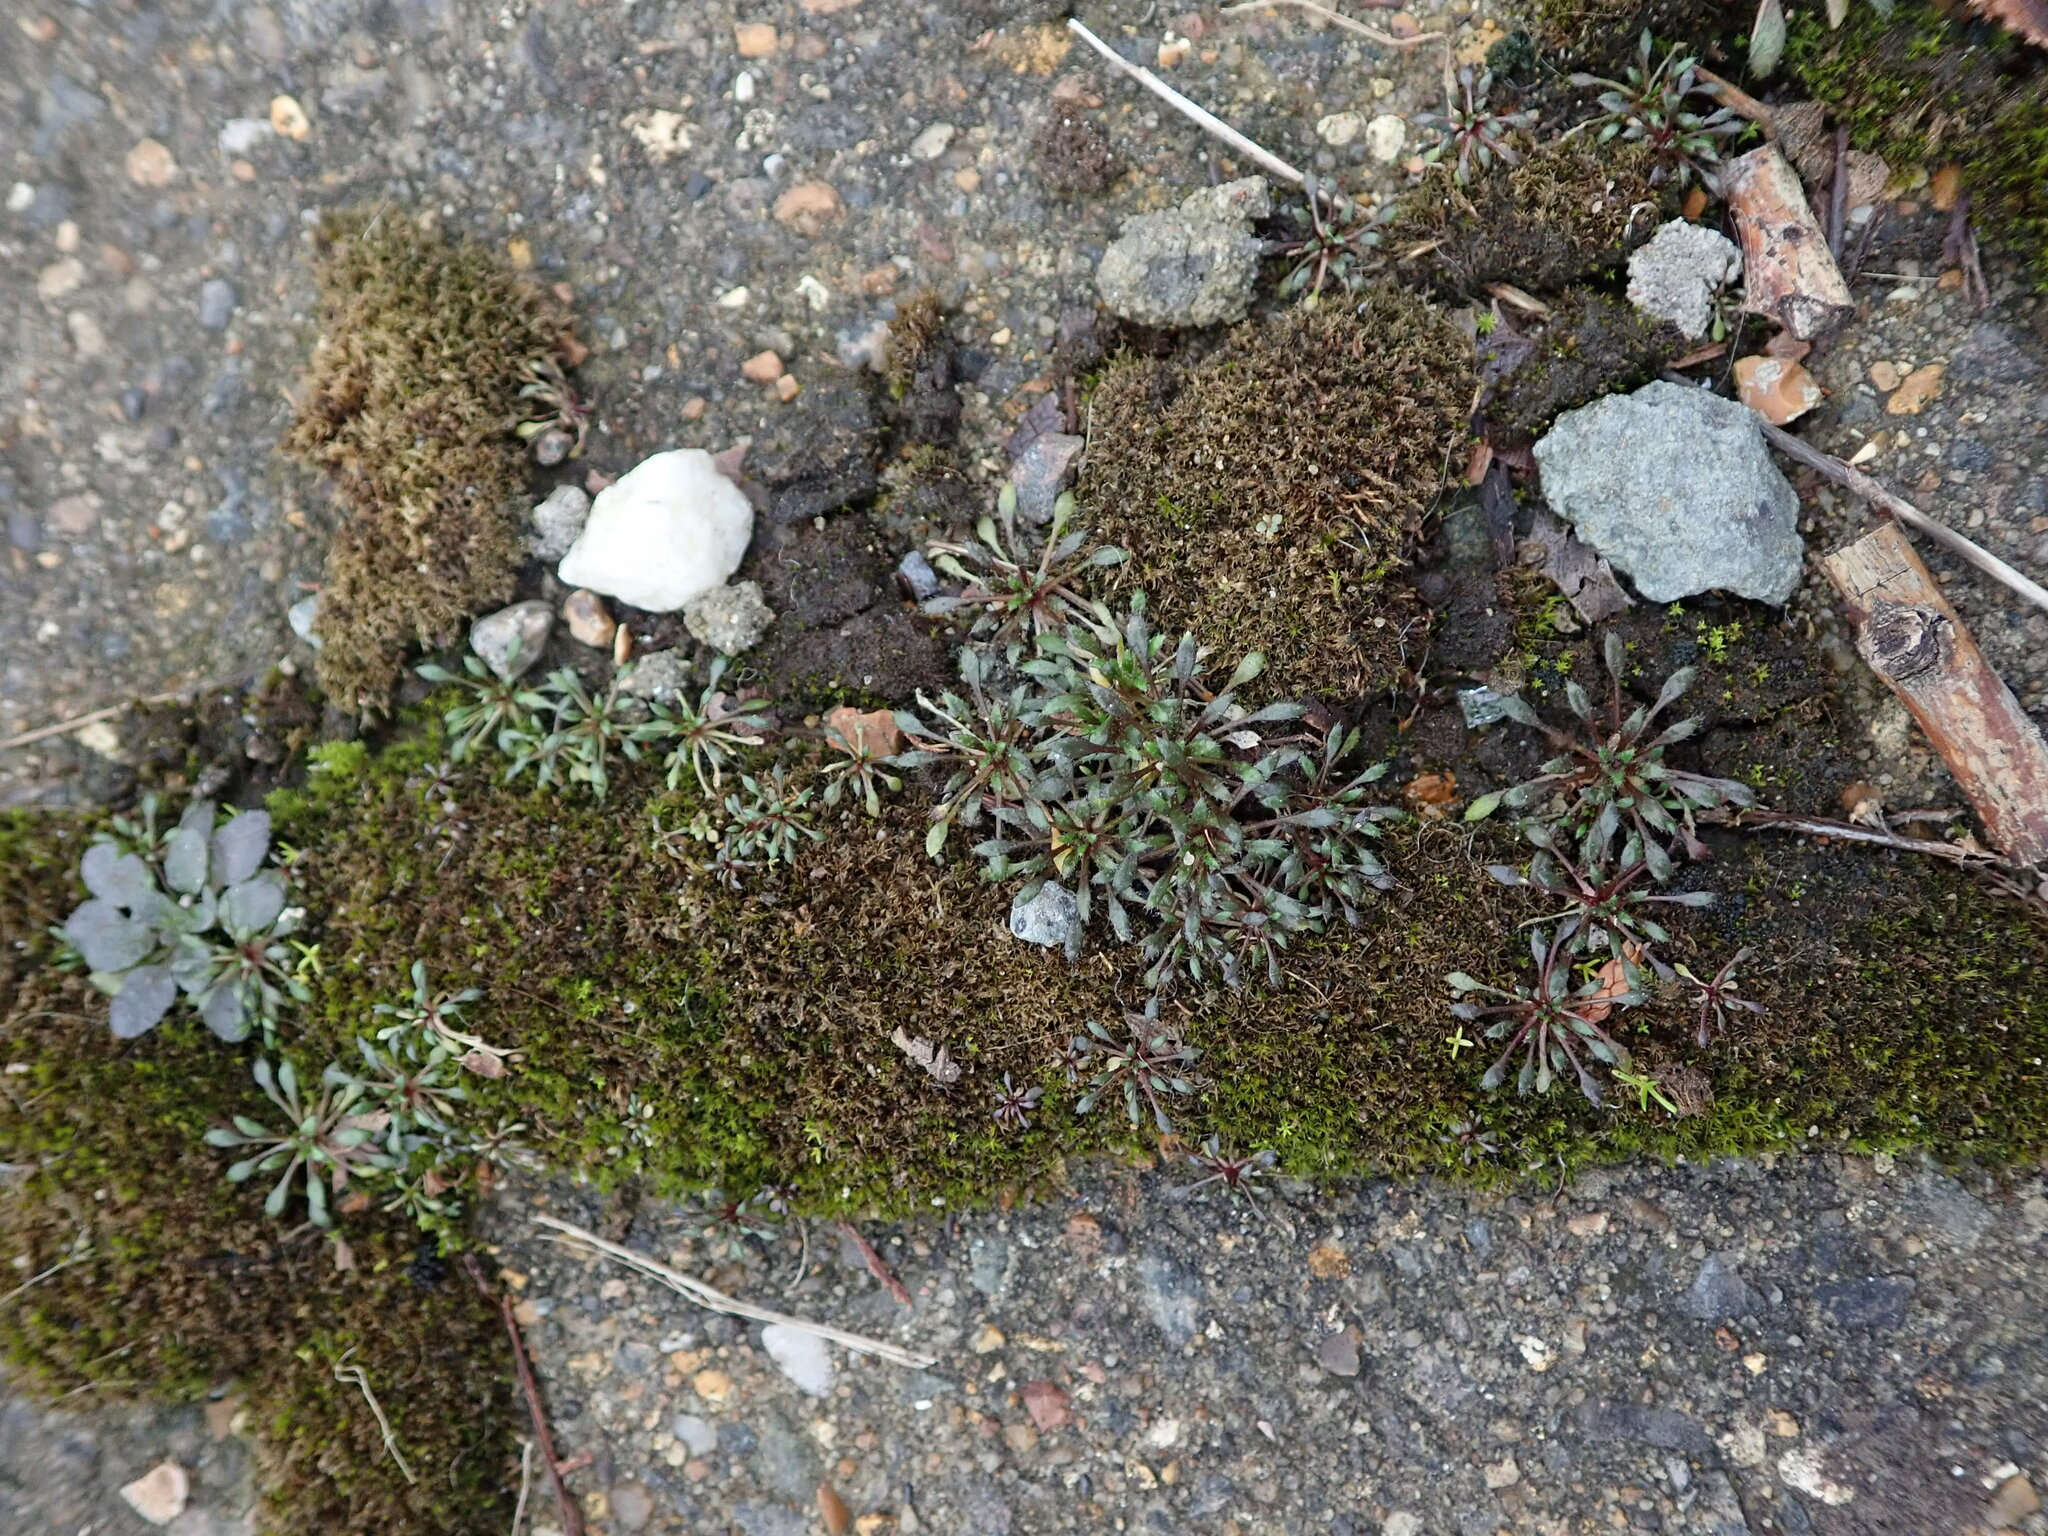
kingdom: Plantae
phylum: Tracheophyta
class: Magnoliopsida
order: Brassicales
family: Brassicaceae
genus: Draba
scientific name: Draba verna
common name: Spring draba
